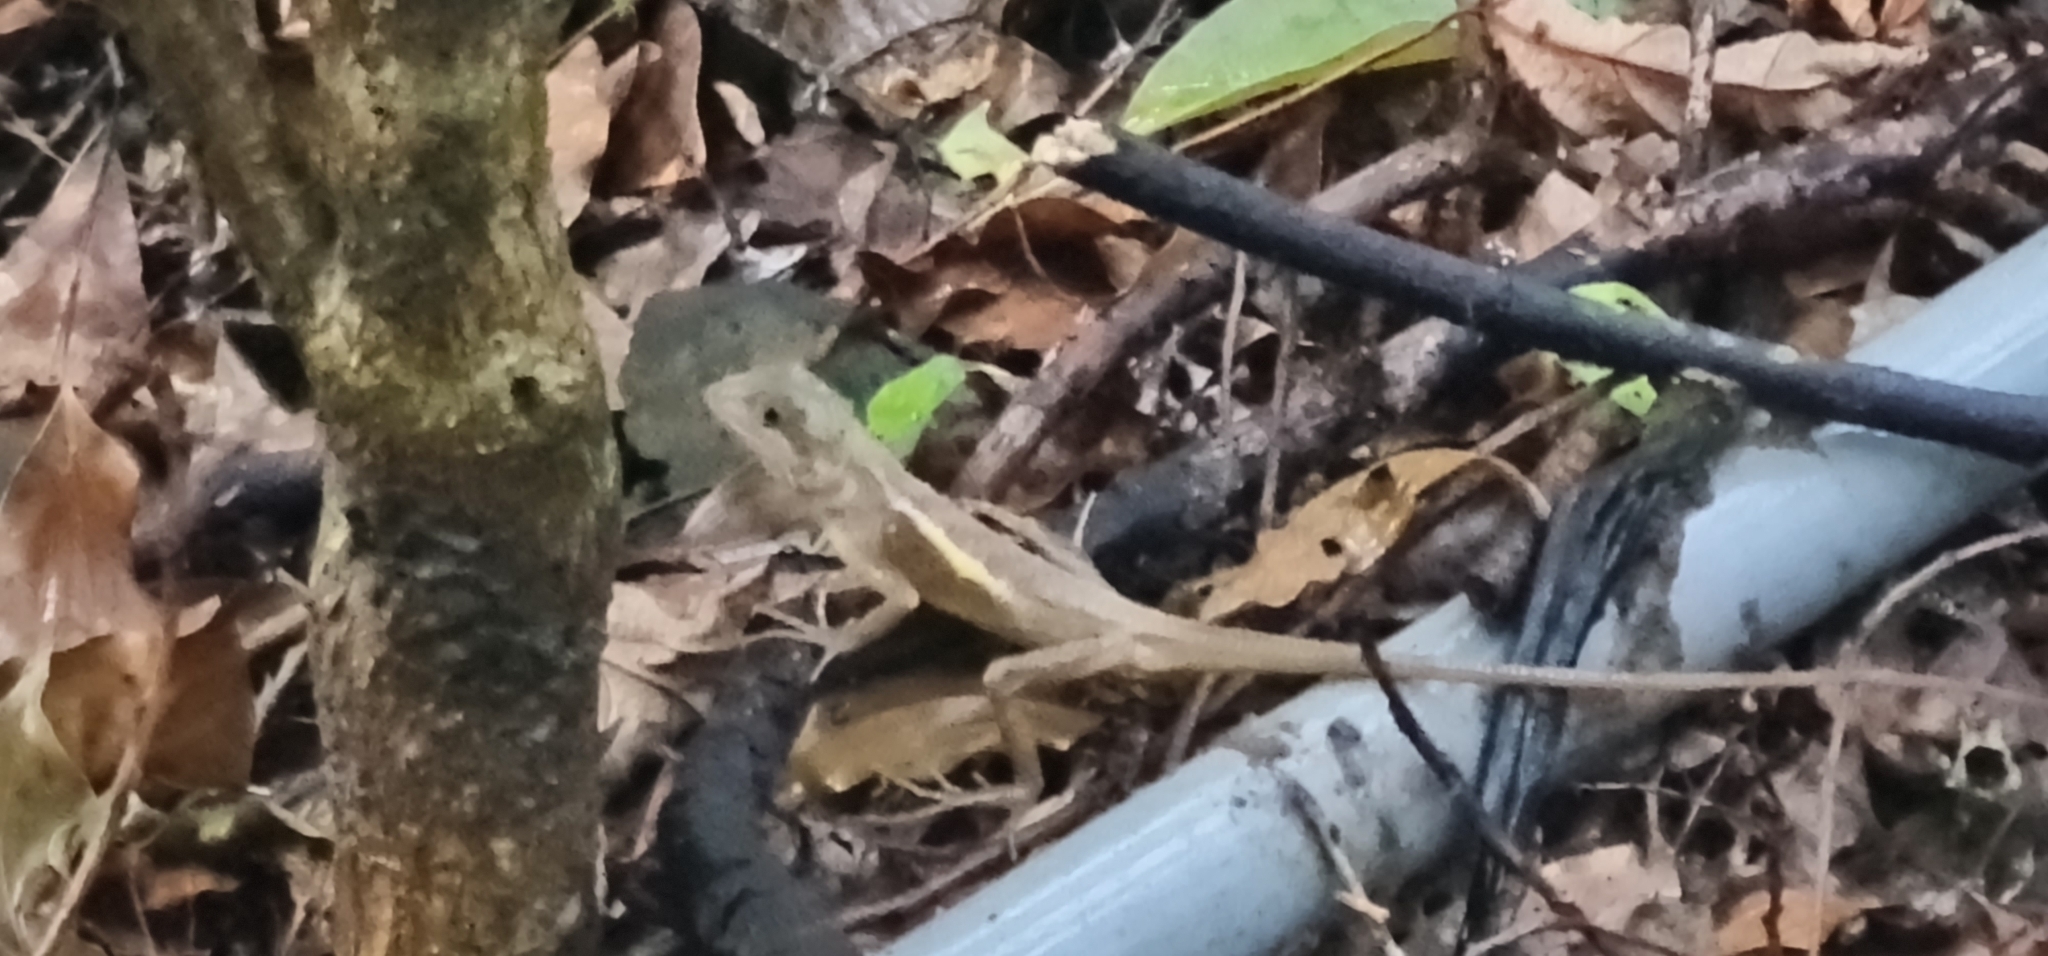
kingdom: Animalia
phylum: Chordata
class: Squamata
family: Agamidae
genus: Diploderma
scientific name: Diploderma swinhonis
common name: Taiwan japalure
